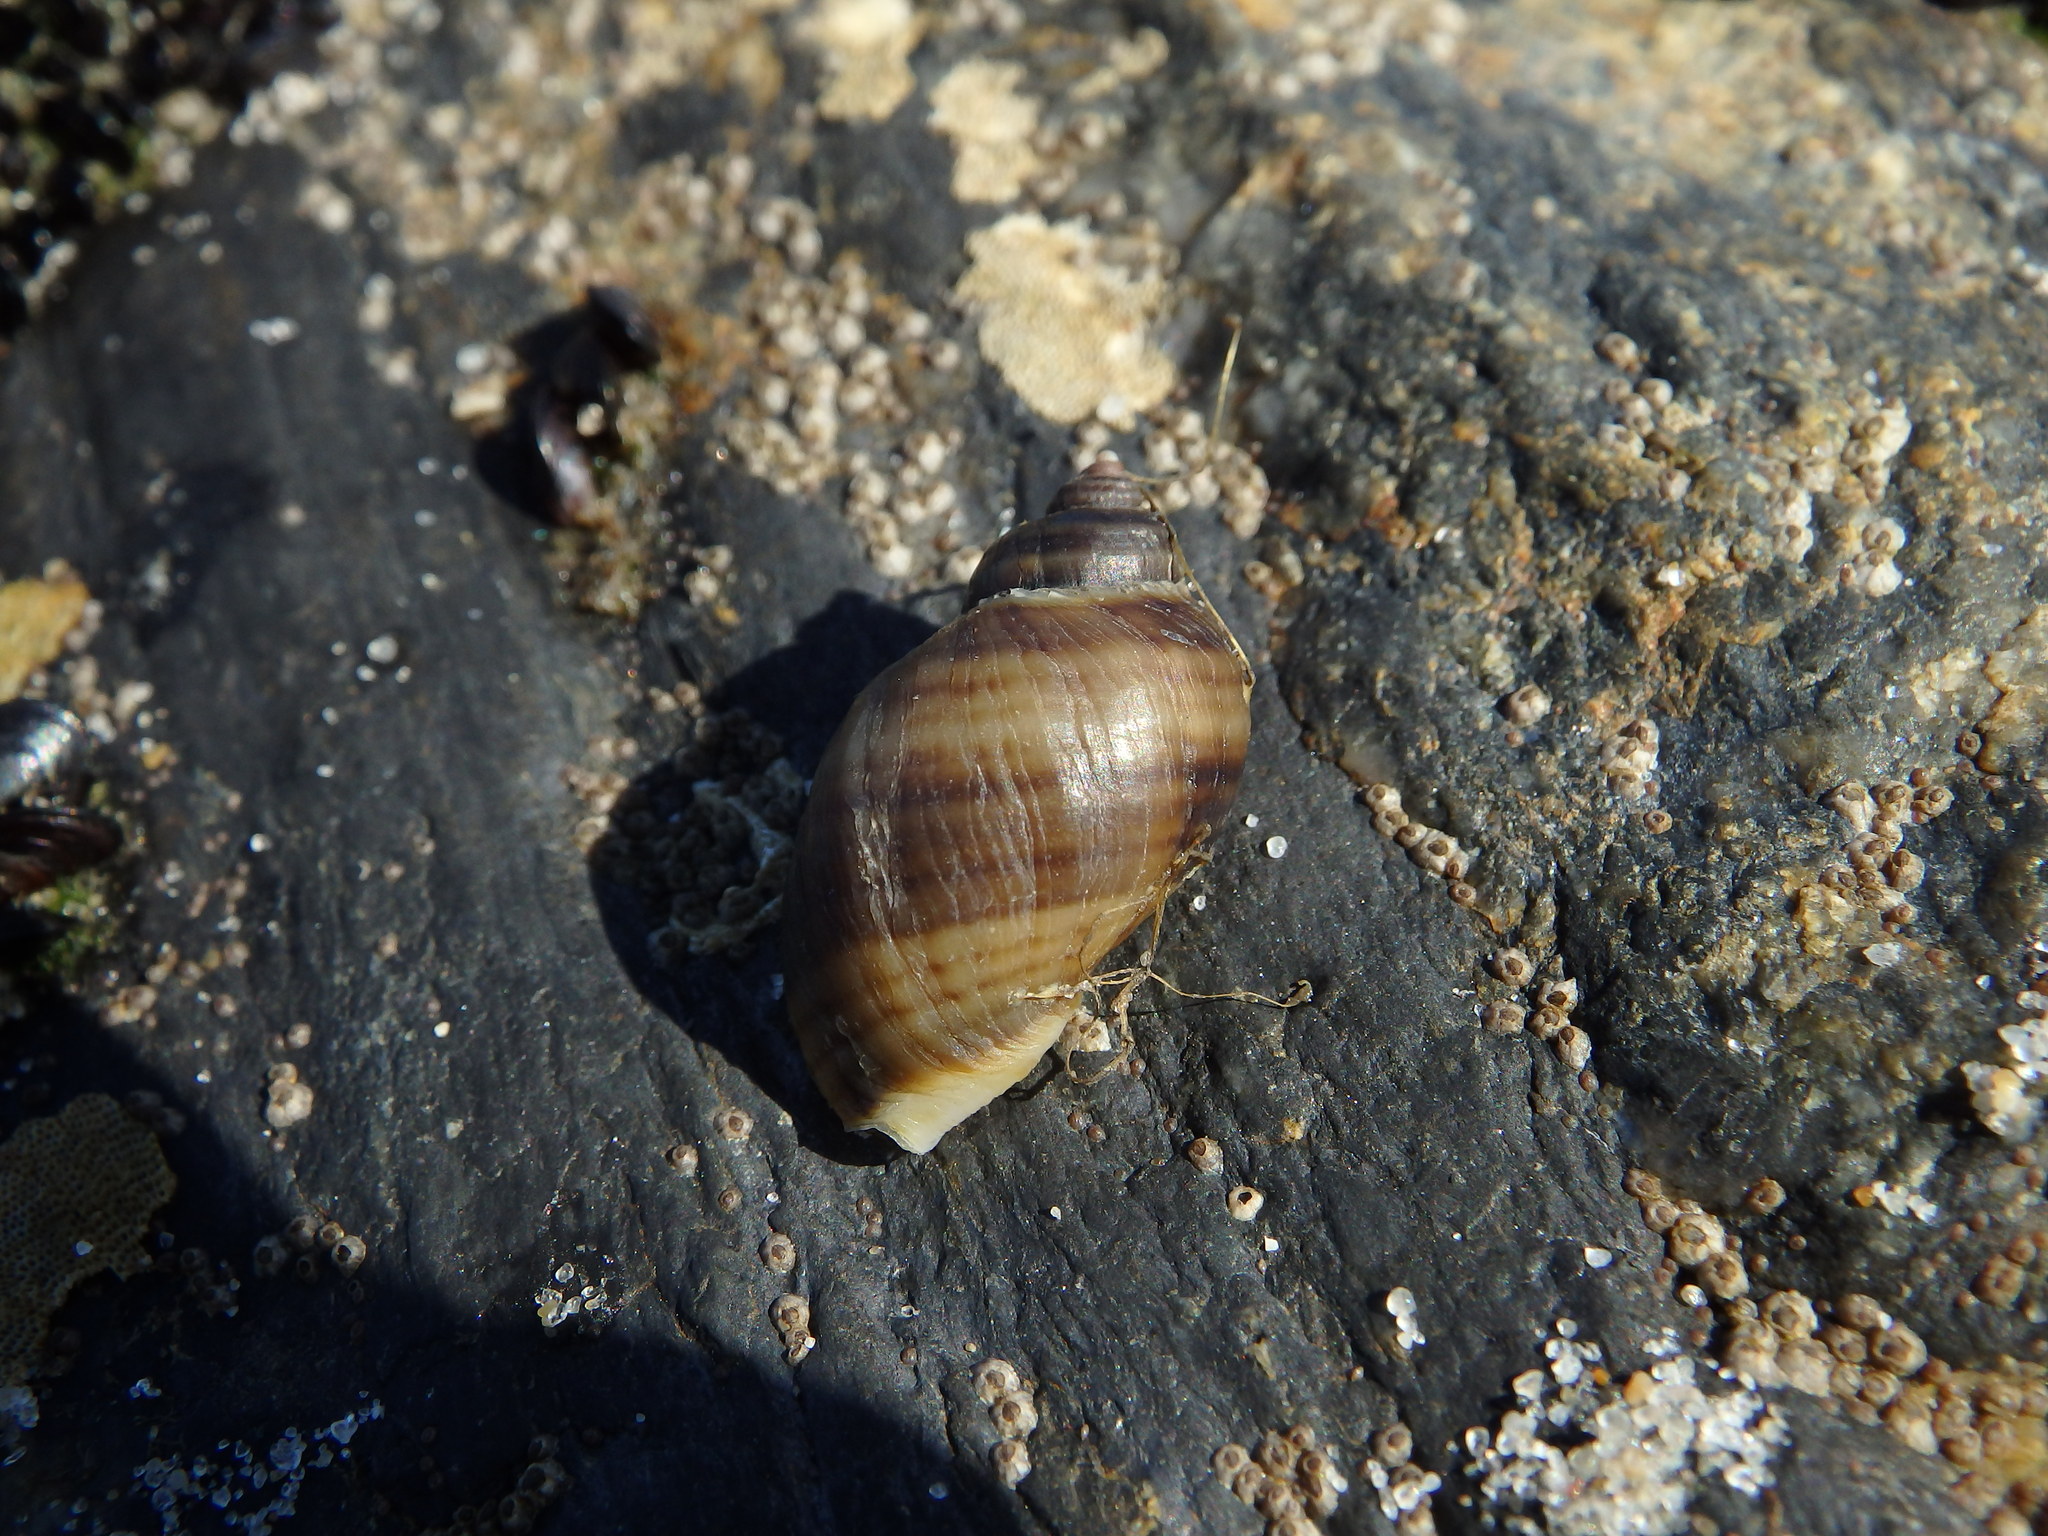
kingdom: Animalia
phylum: Mollusca
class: Gastropoda
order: Neogastropoda
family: Muricidae
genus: Nucella
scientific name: Nucella lapillus
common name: Dog whelk
